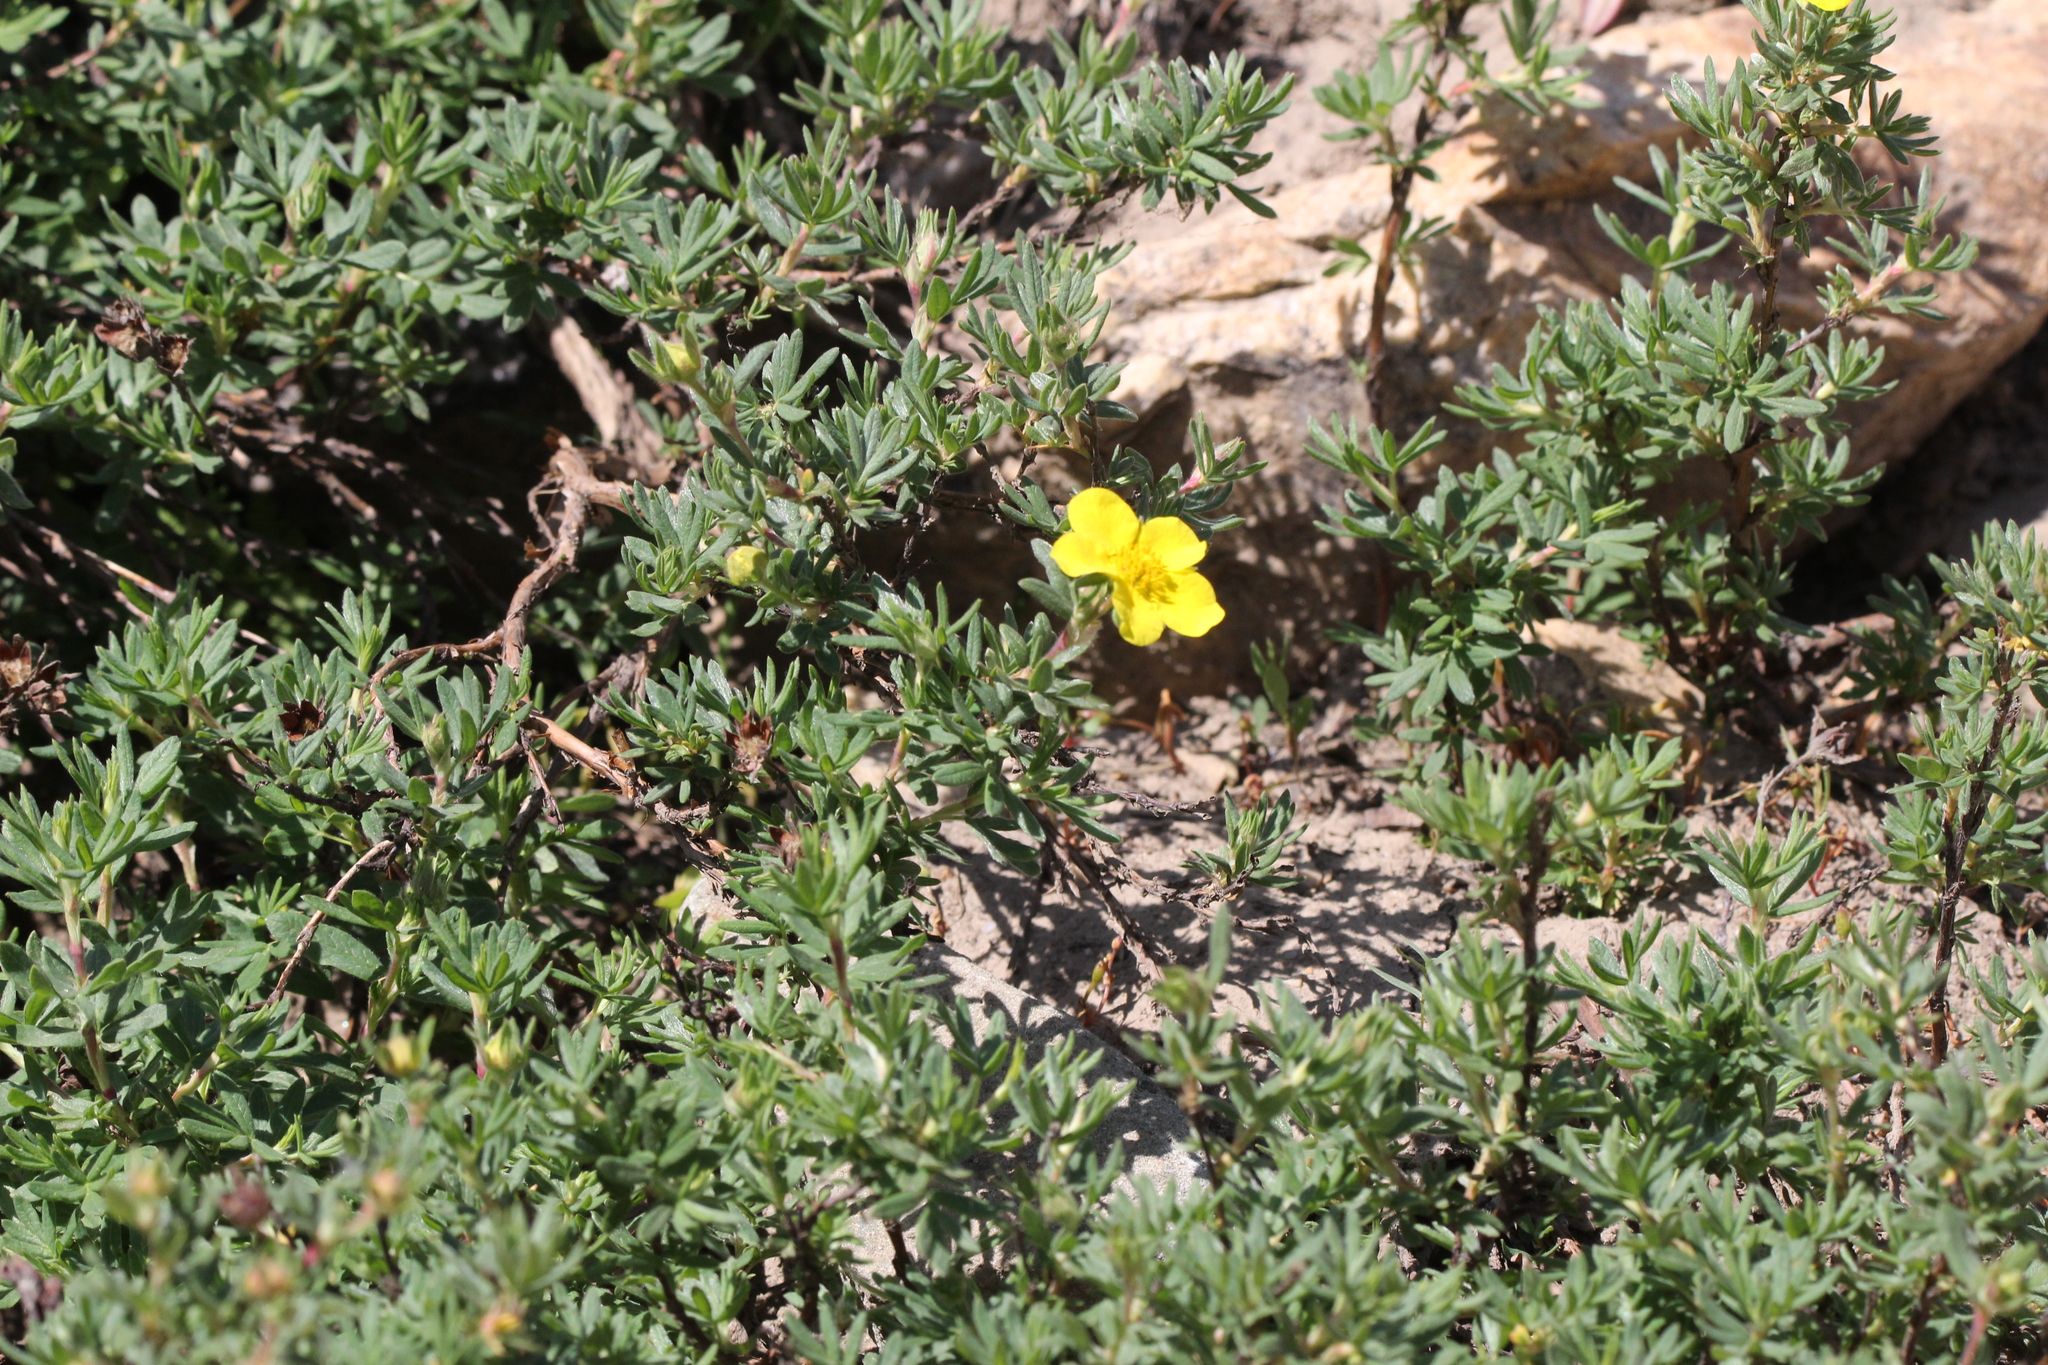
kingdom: Plantae
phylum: Tracheophyta
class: Magnoliopsida
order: Rosales
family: Rosaceae
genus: Dasiphora
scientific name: Dasiphora fruticosa
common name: Shrubby cinquefoil
